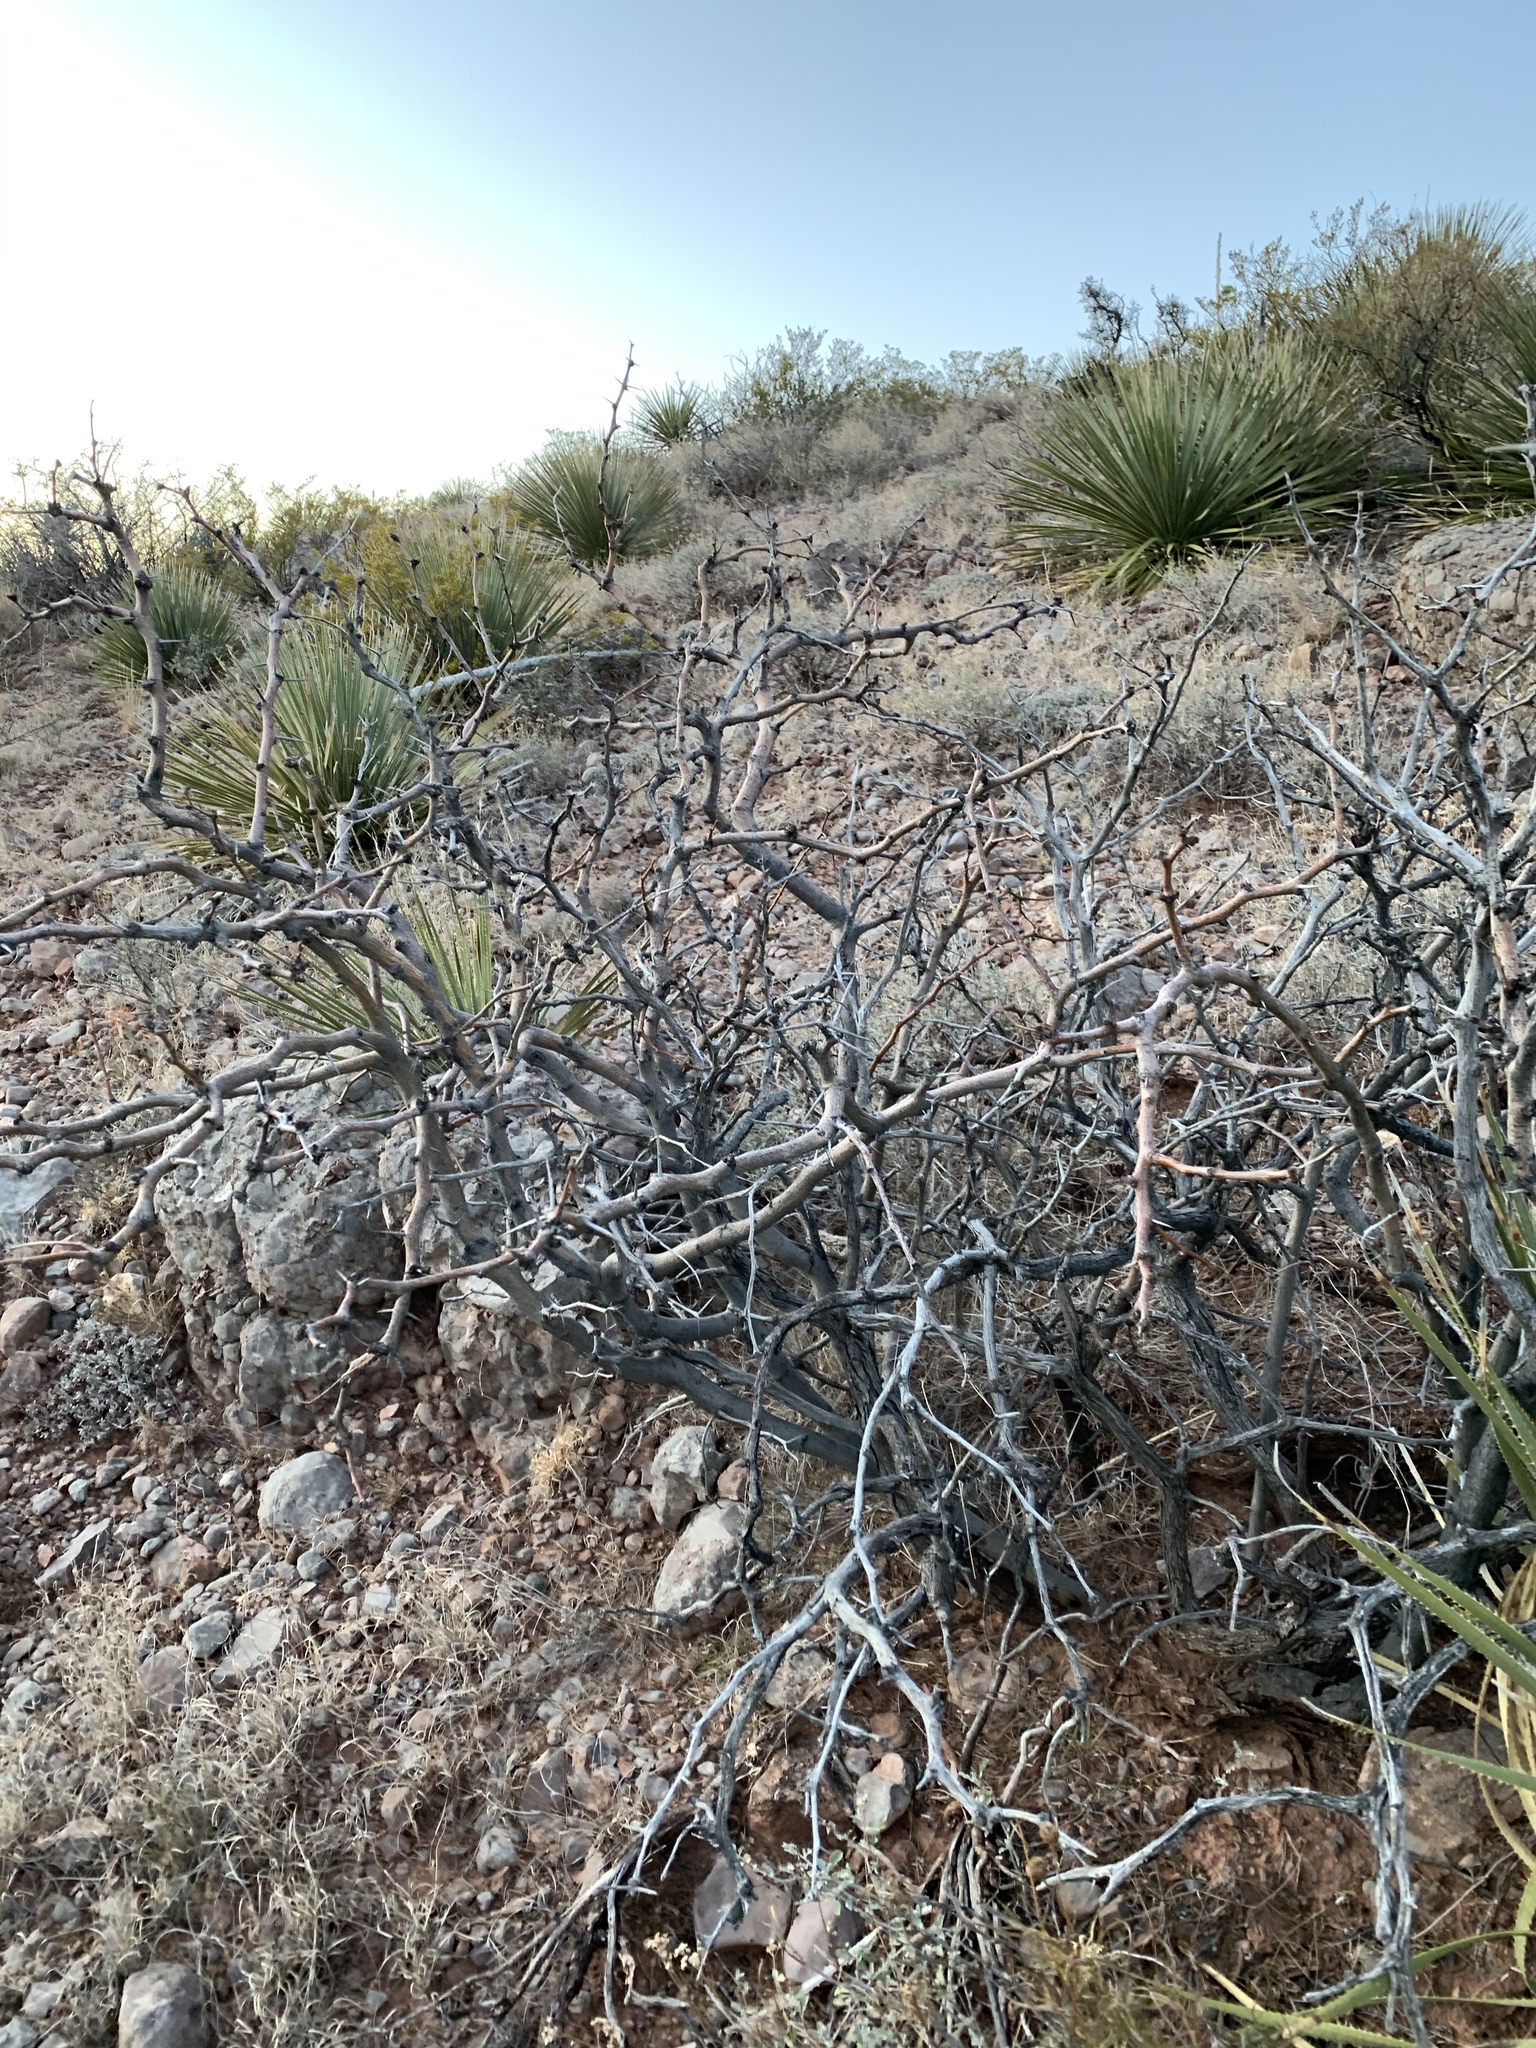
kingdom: Plantae
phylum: Tracheophyta
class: Magnoliopsida
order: Fabales
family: Fabaceae
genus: Prosopis
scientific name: Prosopis glandulosa
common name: Honey mesquite
